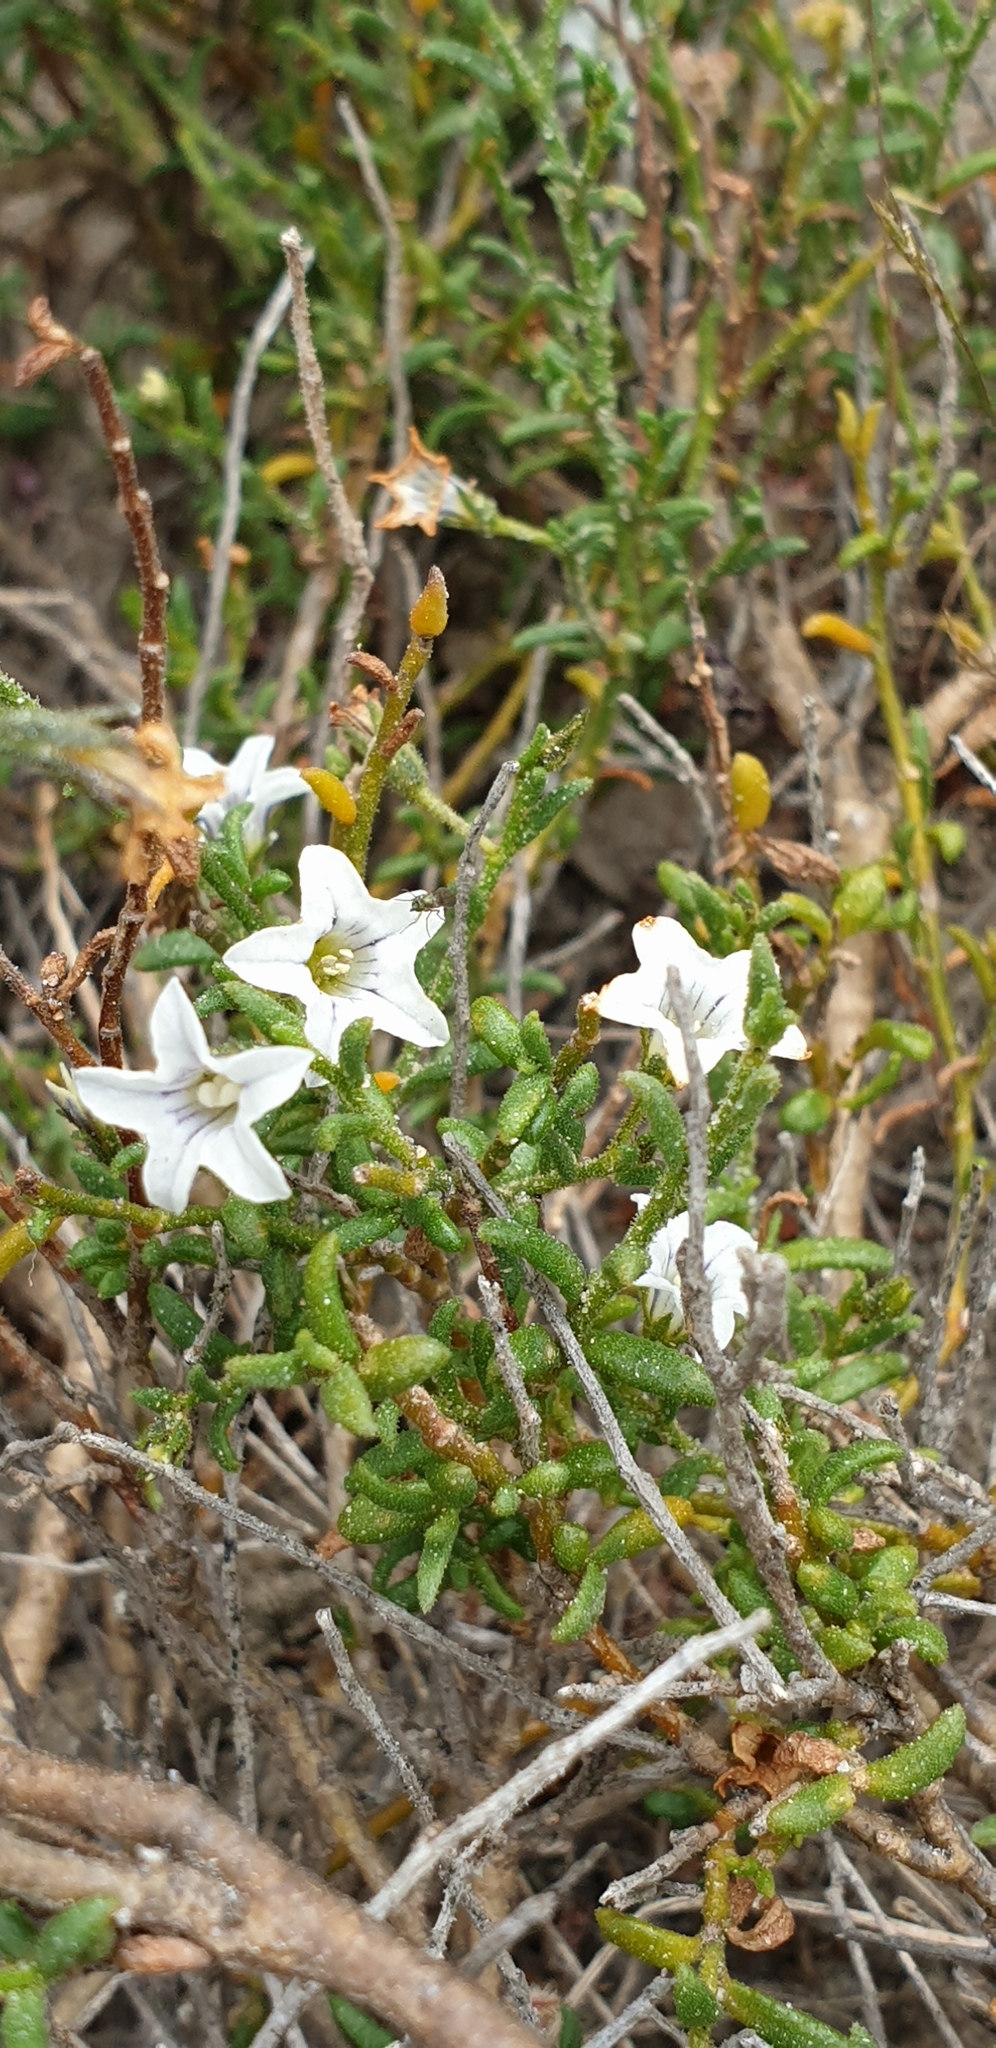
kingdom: Plantae
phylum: Tracheophyta
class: Magnoliopsida
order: Solanales
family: Solanaceae
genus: Cyphanthera
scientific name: Cyphanthera myosotidea
